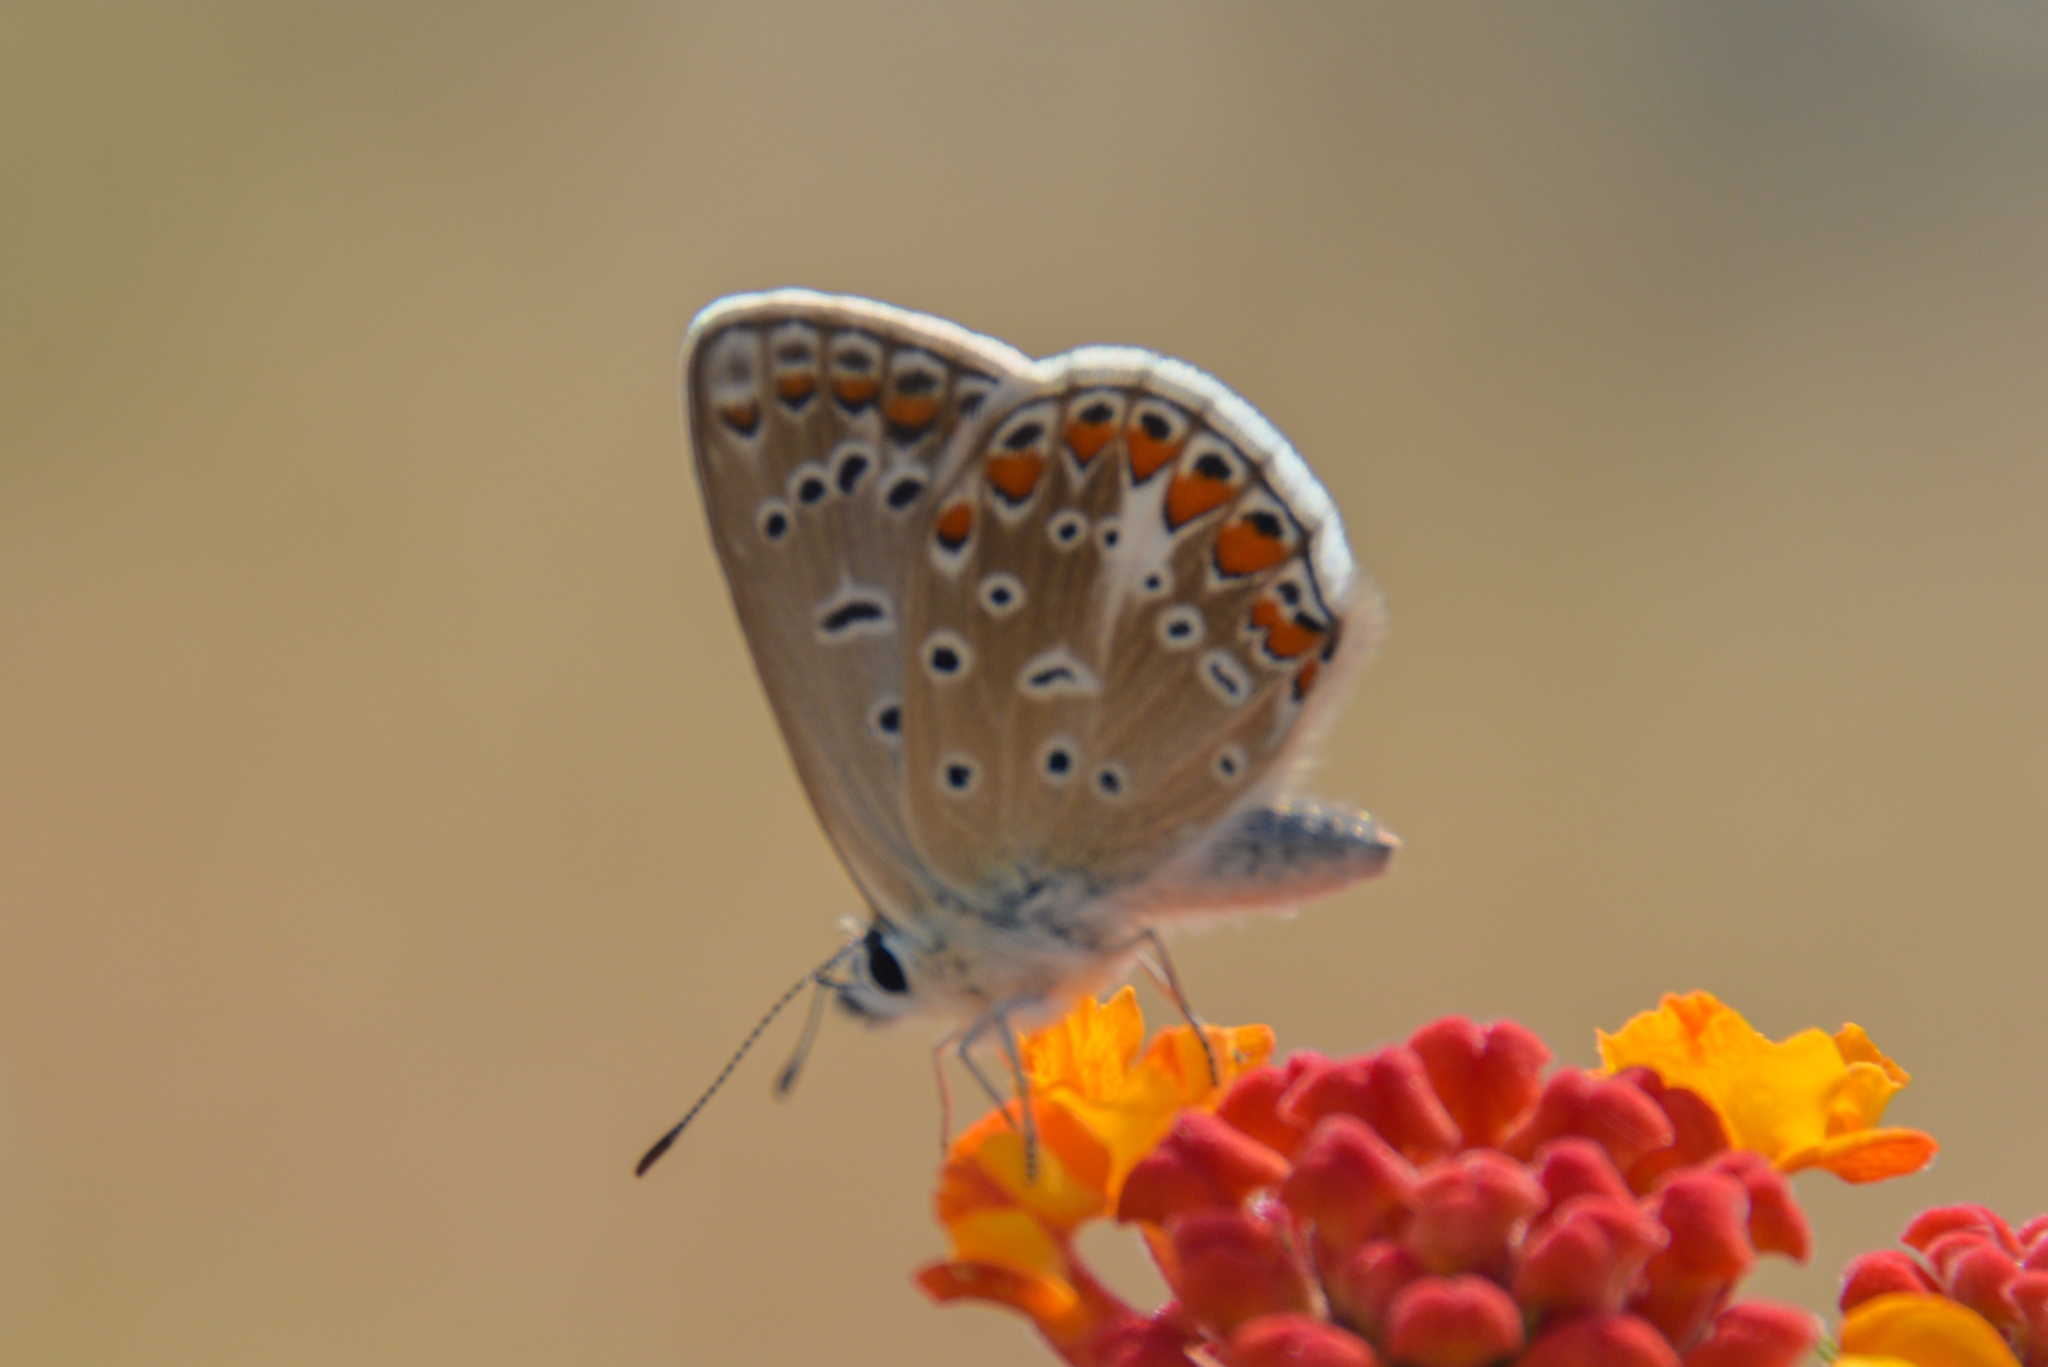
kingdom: Animalia
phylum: Arthropoda
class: Insecta
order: Lepidoptera
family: Lycaenidae
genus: Polyommatus
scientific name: Polyommatus celina
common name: Austaut's blue
